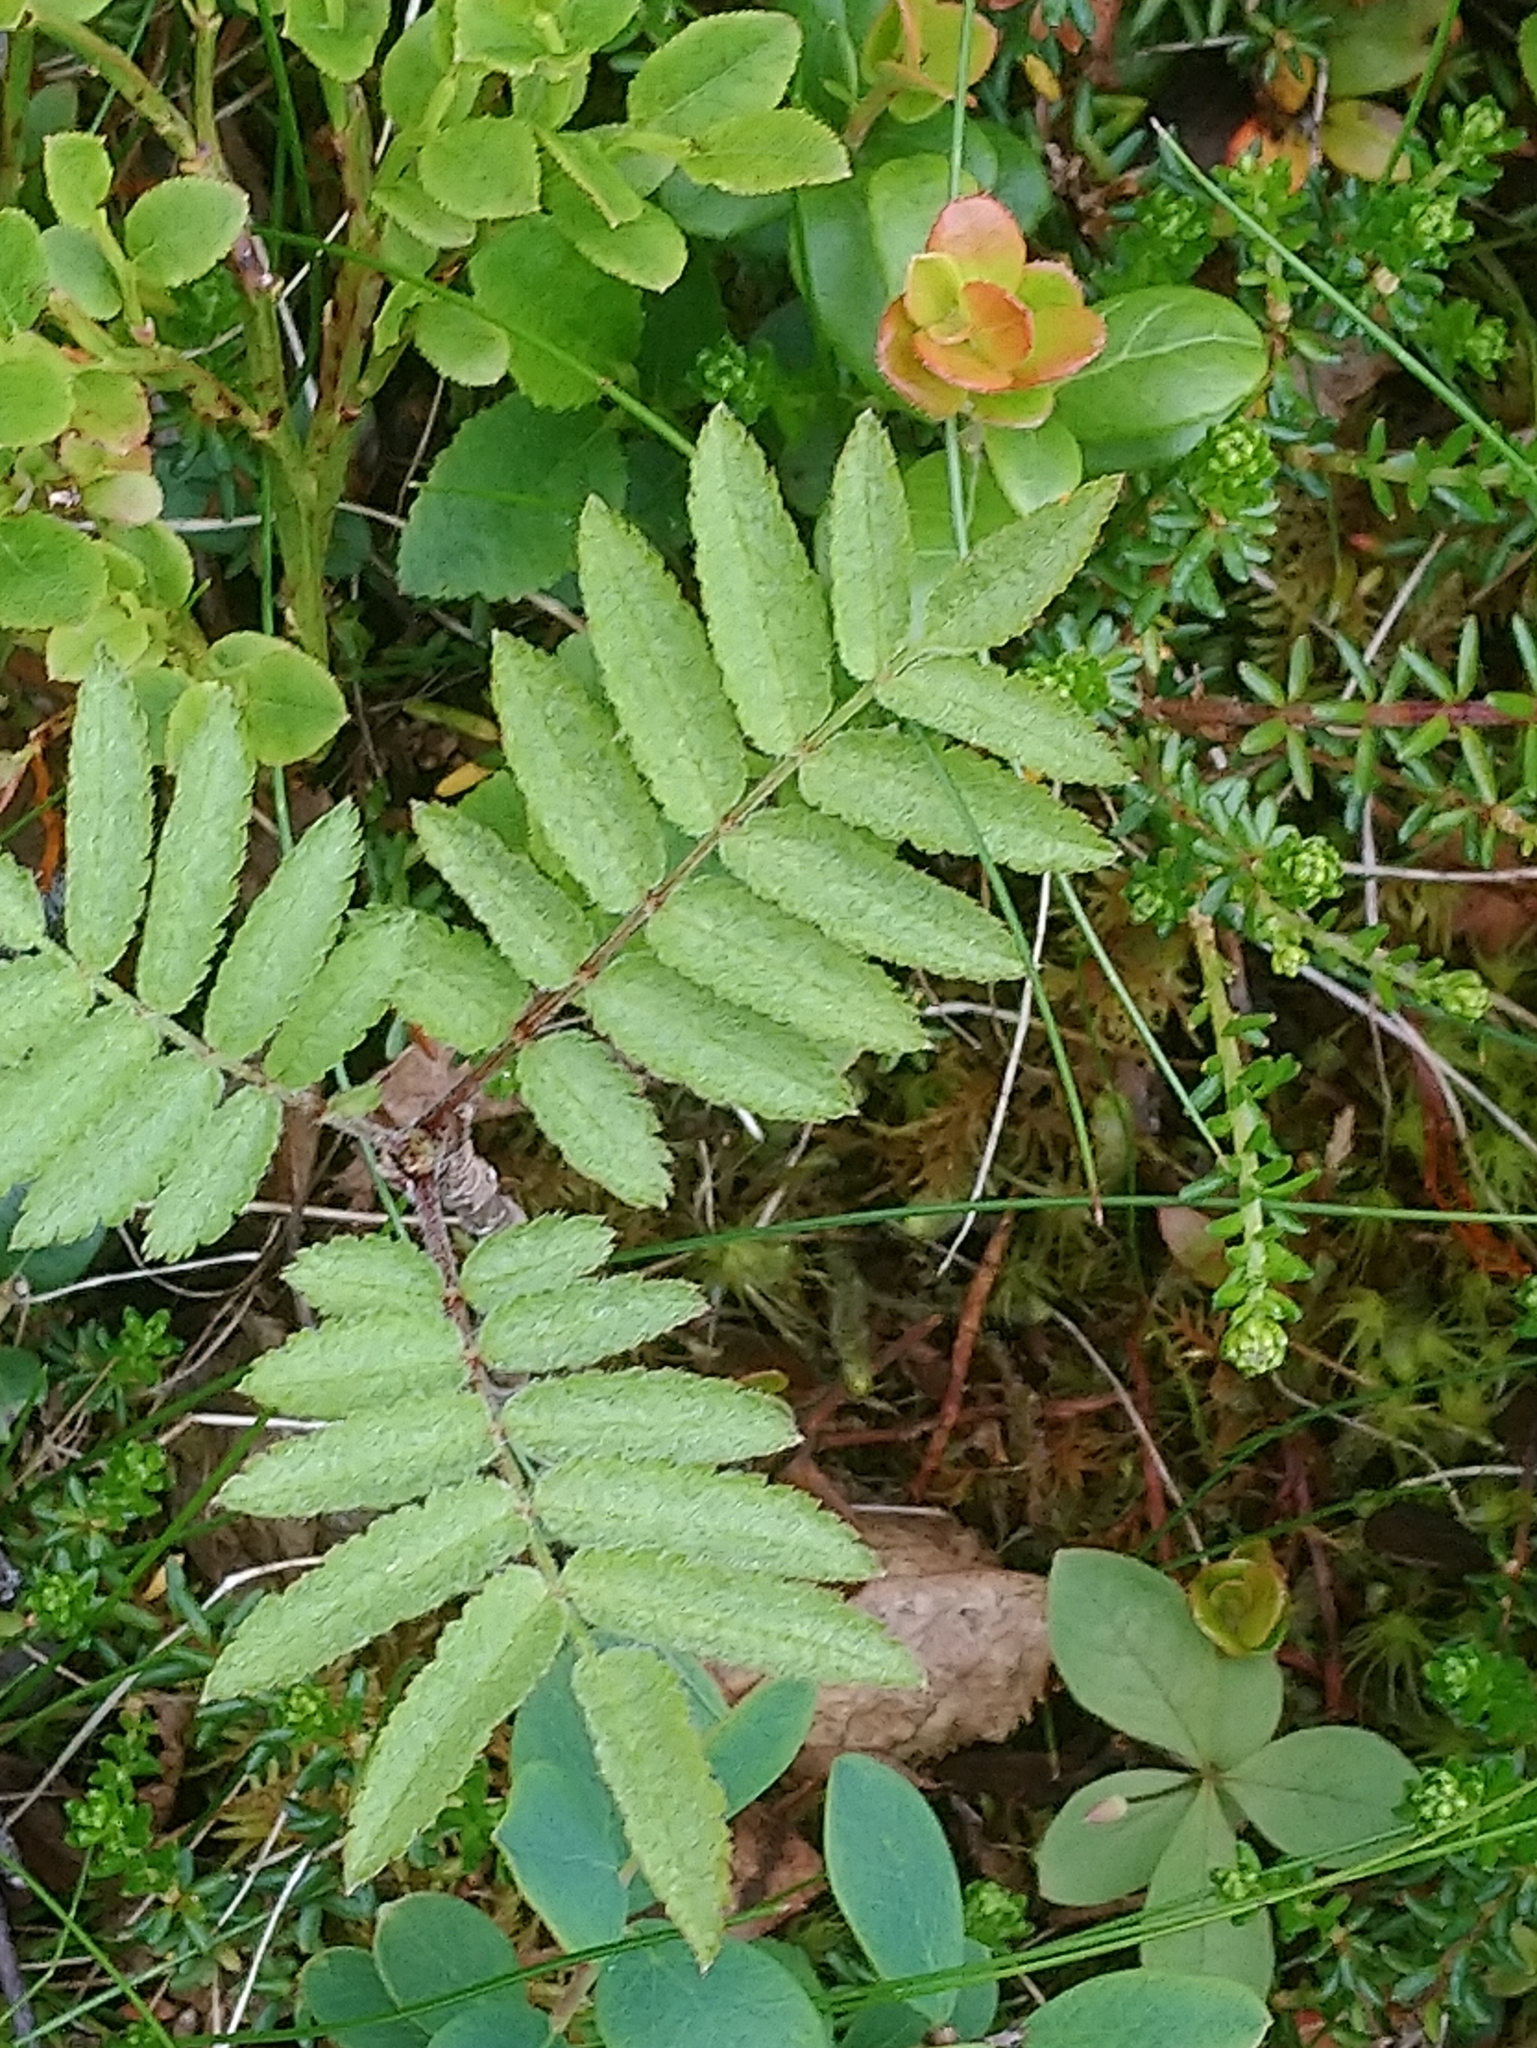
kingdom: Plantae
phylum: Tracheophyta
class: Magnoliopsida
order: Rosales
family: Rosaceae
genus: Sorbus
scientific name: Sorbus aucuparia
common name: Rowan
